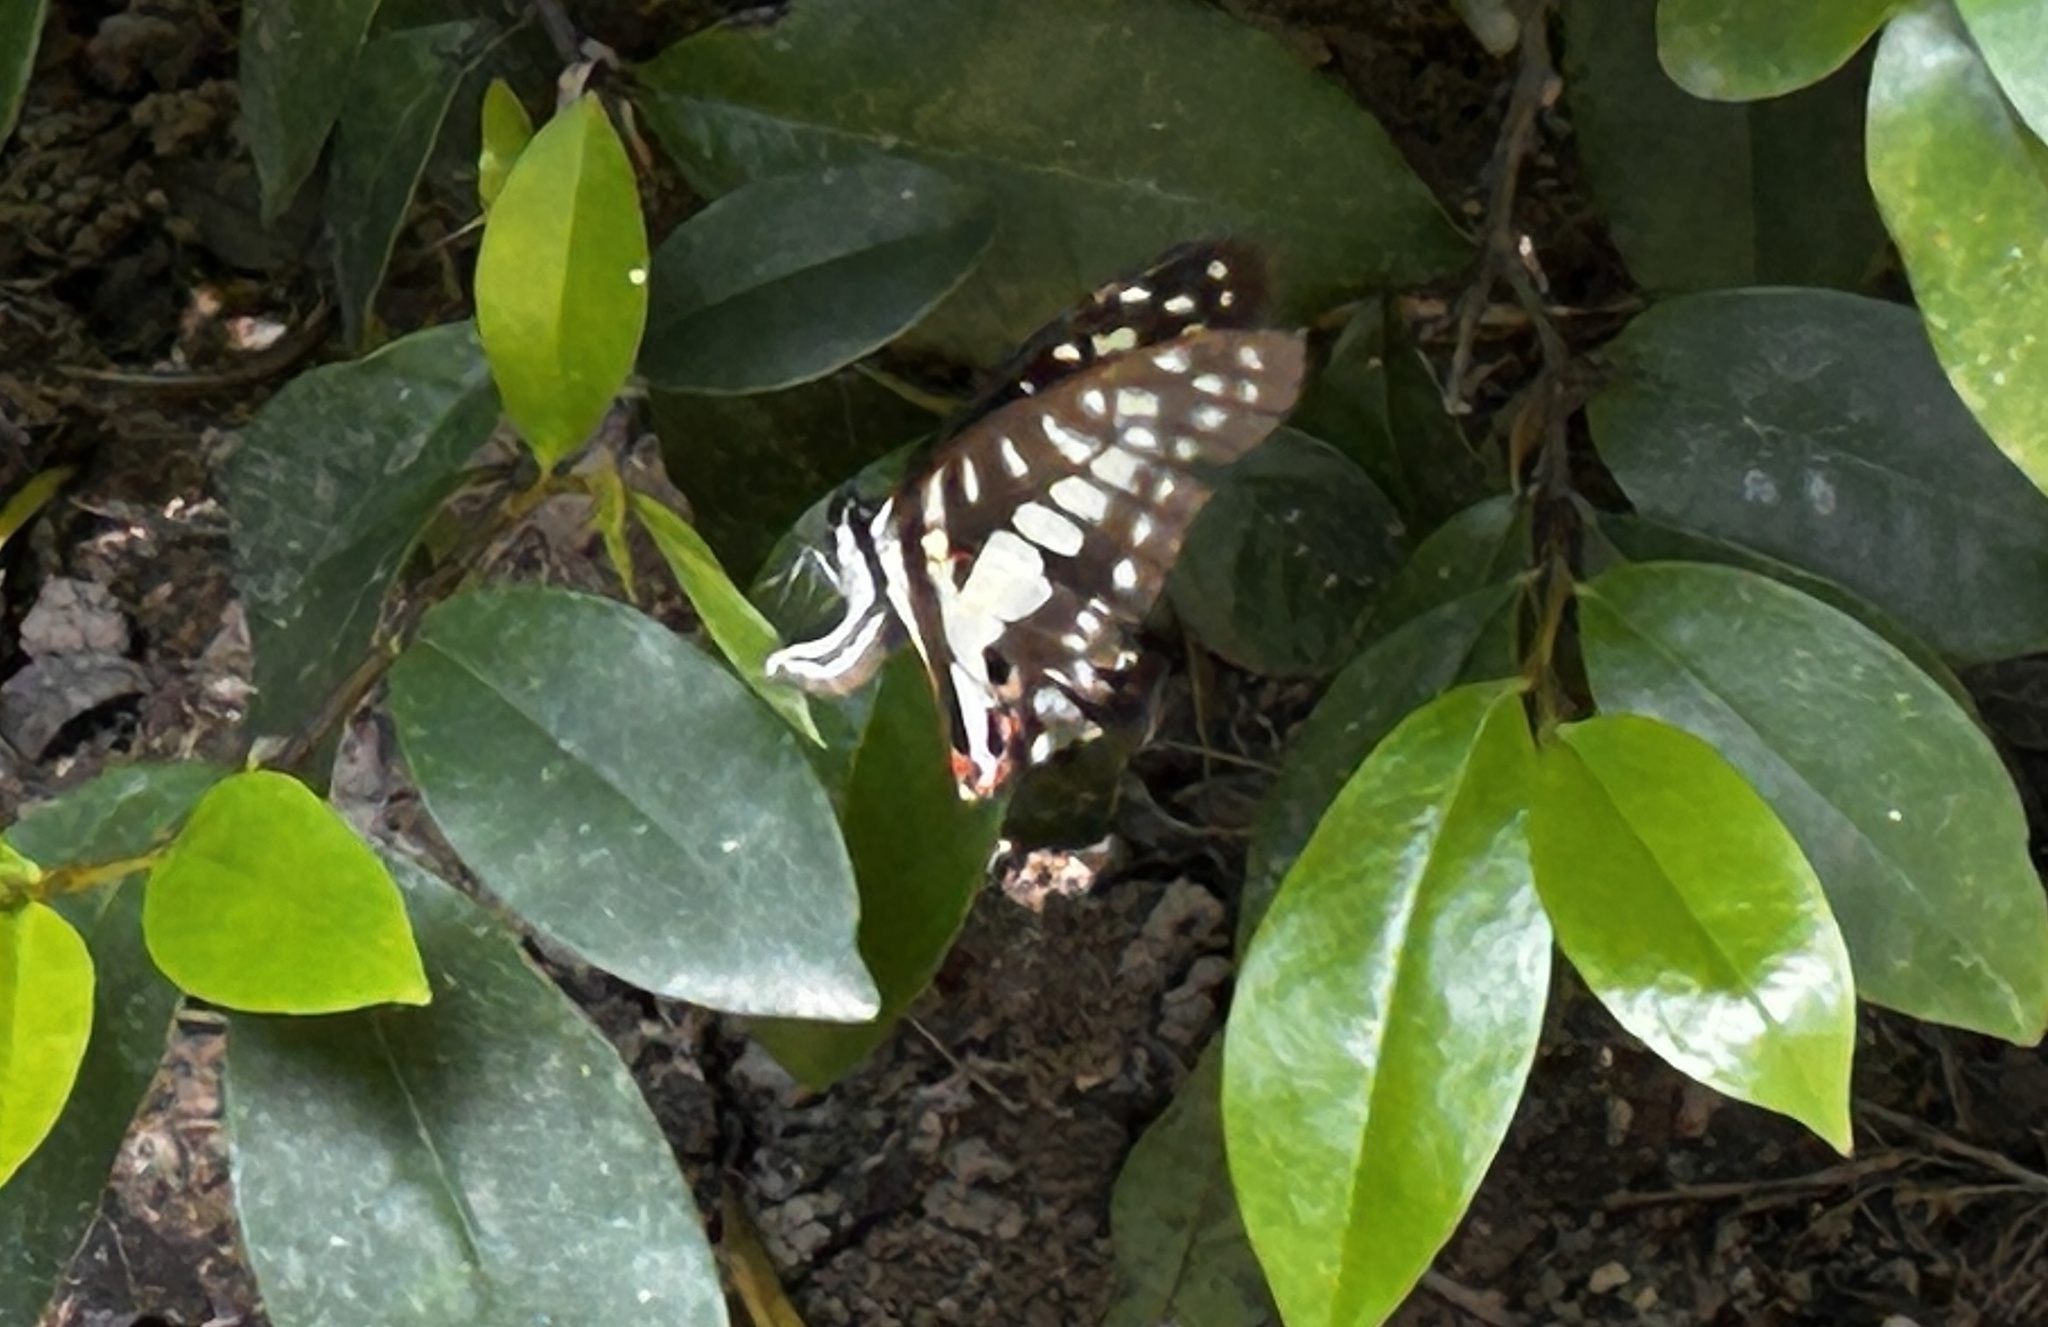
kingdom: Animalia
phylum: Arthropoda
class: Insecta
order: Lepidoptera
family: Papilionidae
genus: Graphium
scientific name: Graphium doson
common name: Common jay
